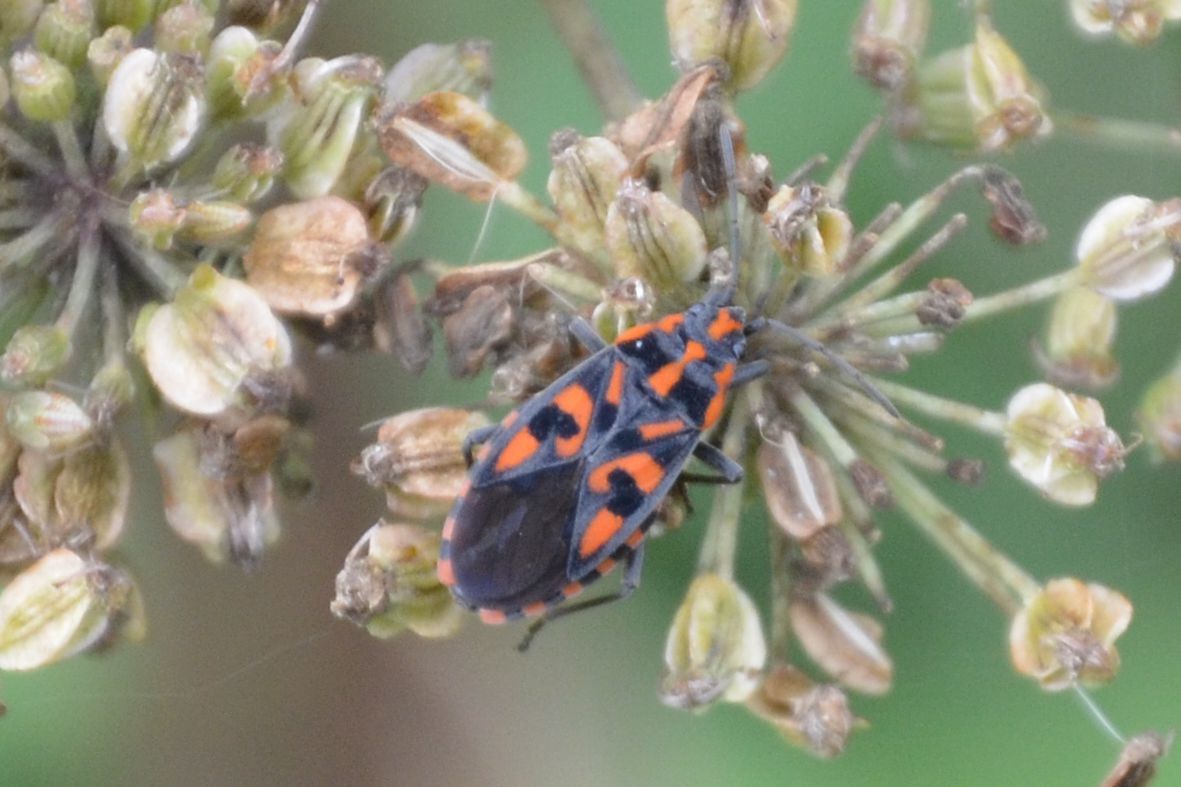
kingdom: Animalia
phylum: Arthropoda
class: Insecta
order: Hemiptera
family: Lygaeidae
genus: Spilostethus
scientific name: Spilostethus saxatilis
